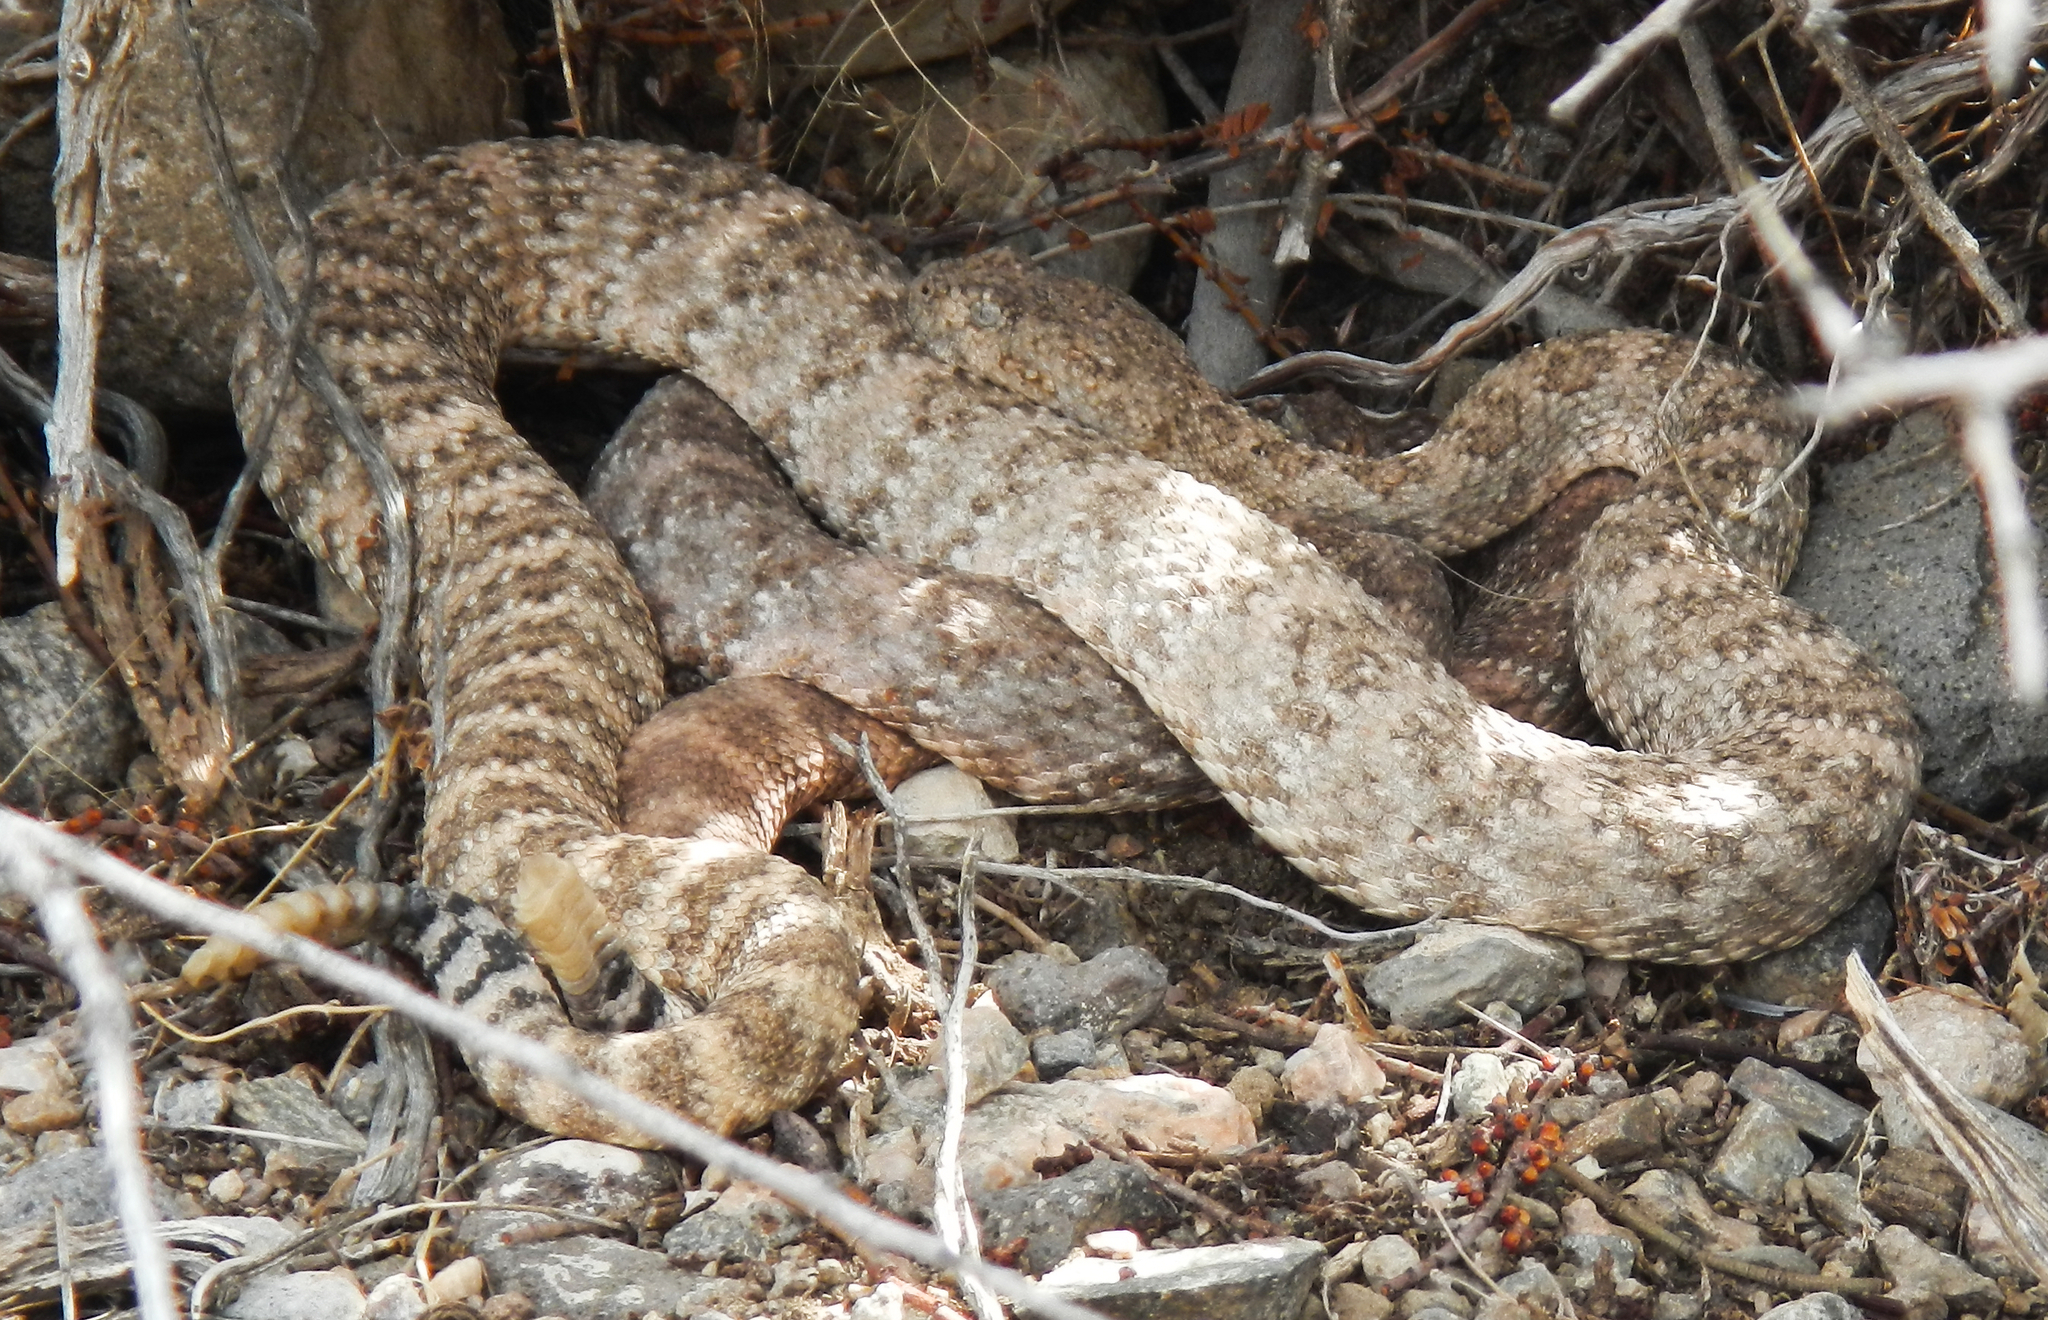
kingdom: Animalia
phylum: Chordata
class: Squamata
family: Viperidae
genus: Crotalus
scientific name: Crotalus pyrrhus
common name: Southwestern speckled rattlesnake
